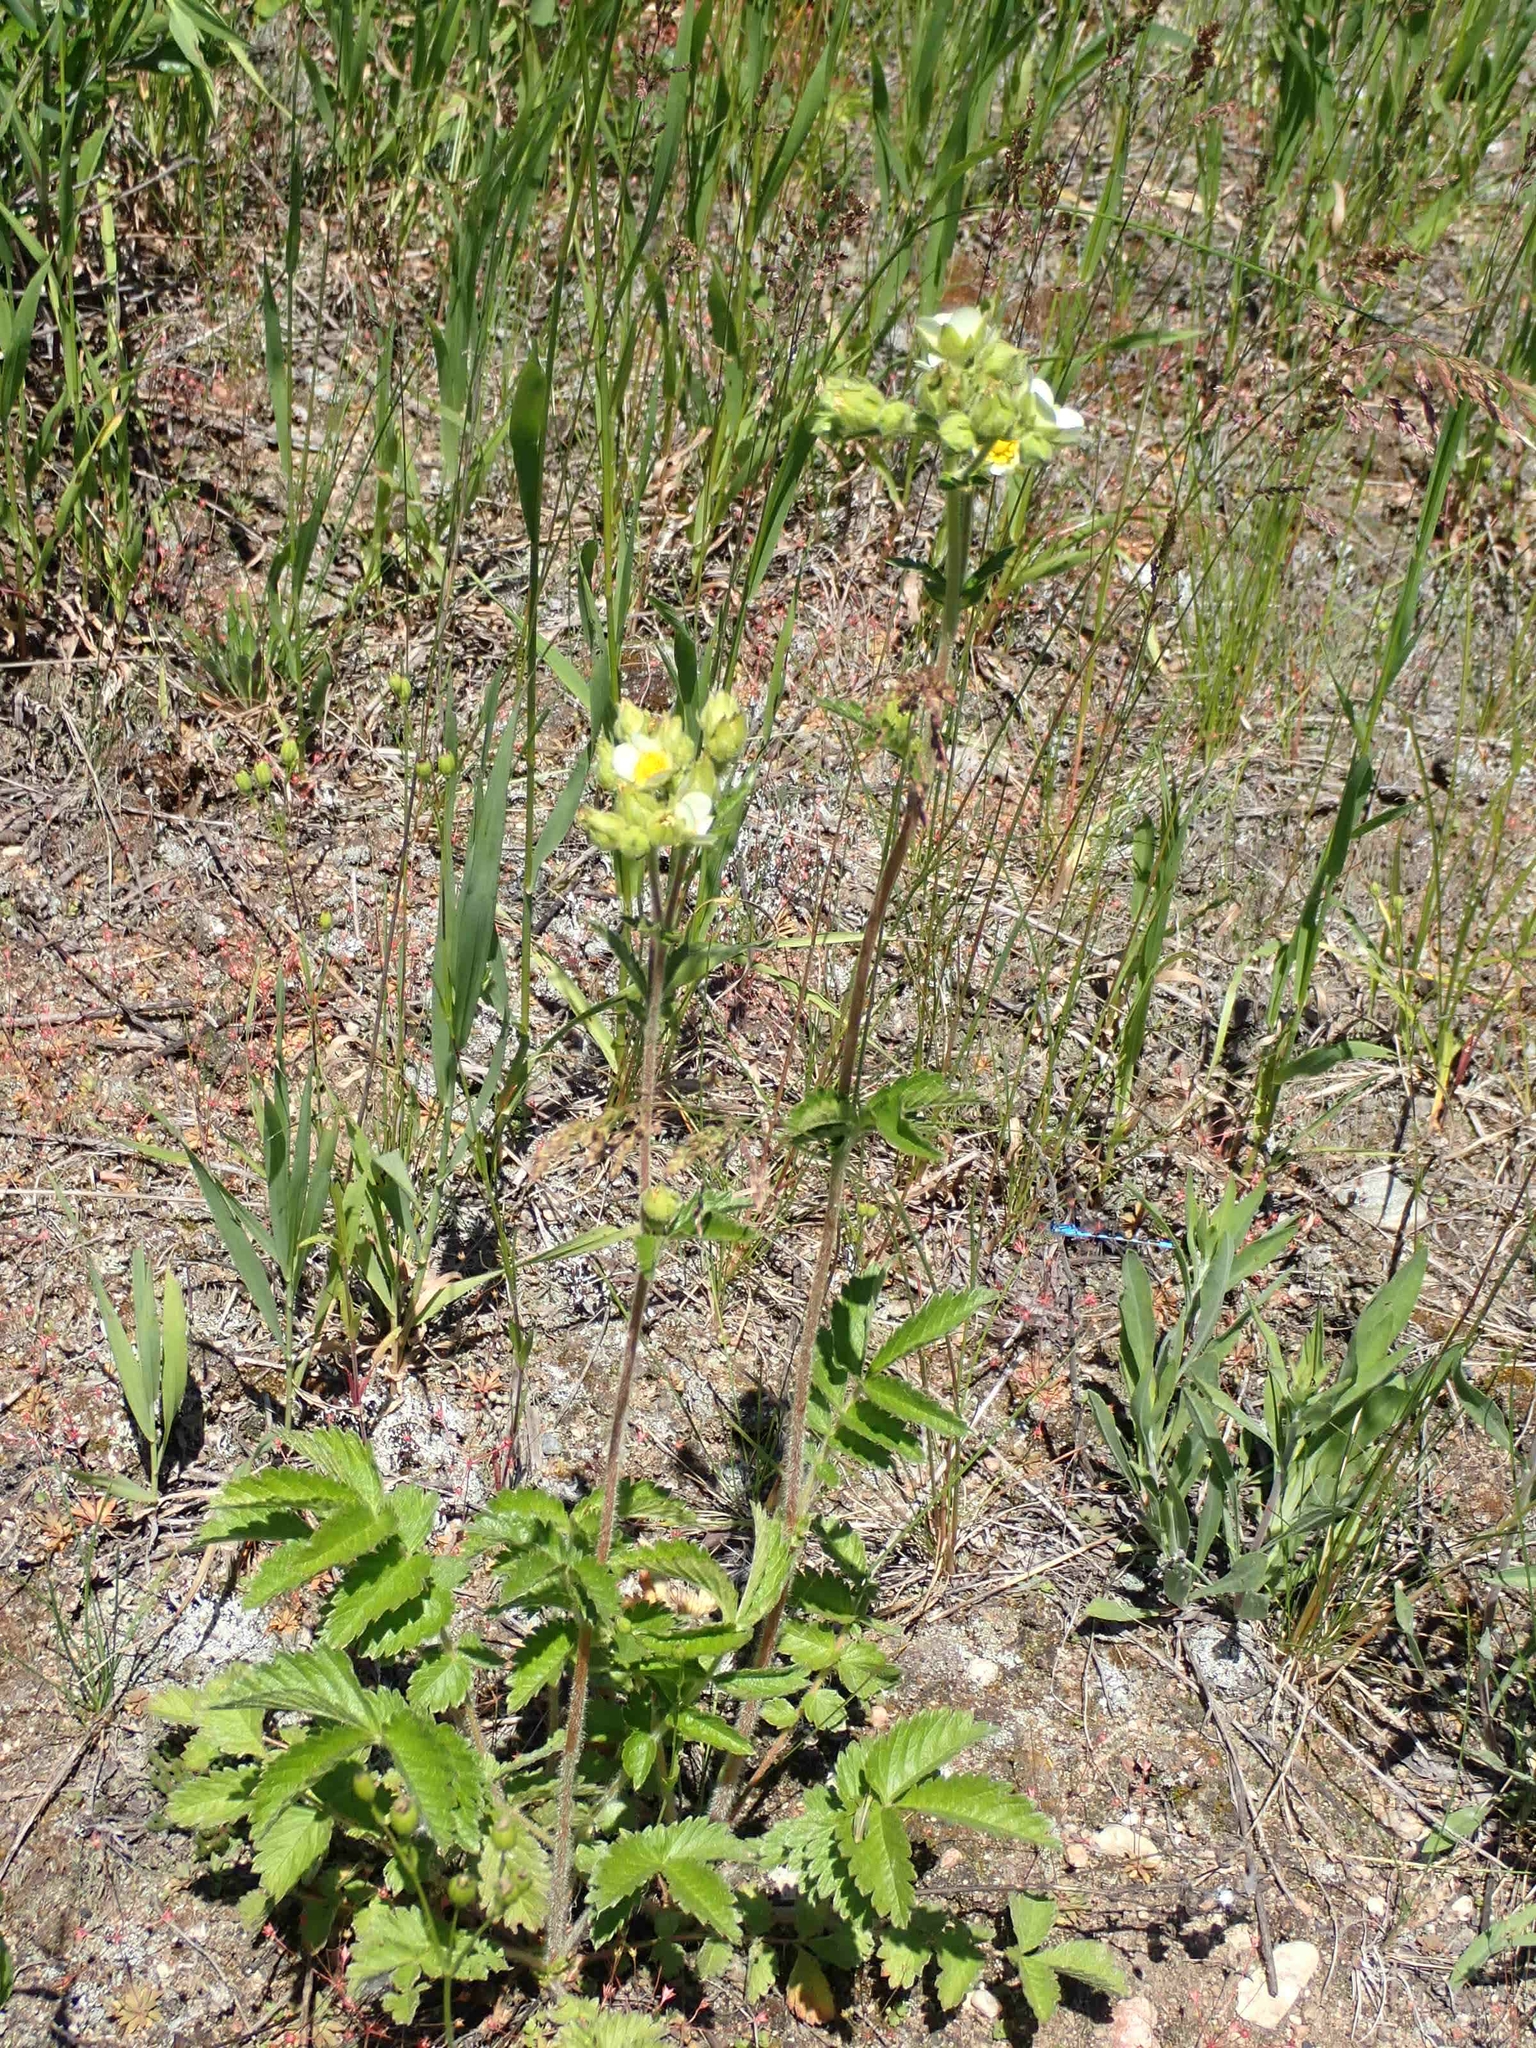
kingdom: Plantae
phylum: Tracheophyta
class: Magnoliopsida
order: Rosales
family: Rosaceae
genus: Drymocallis
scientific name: Drymocallis arguta
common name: Tall cinquefoil
